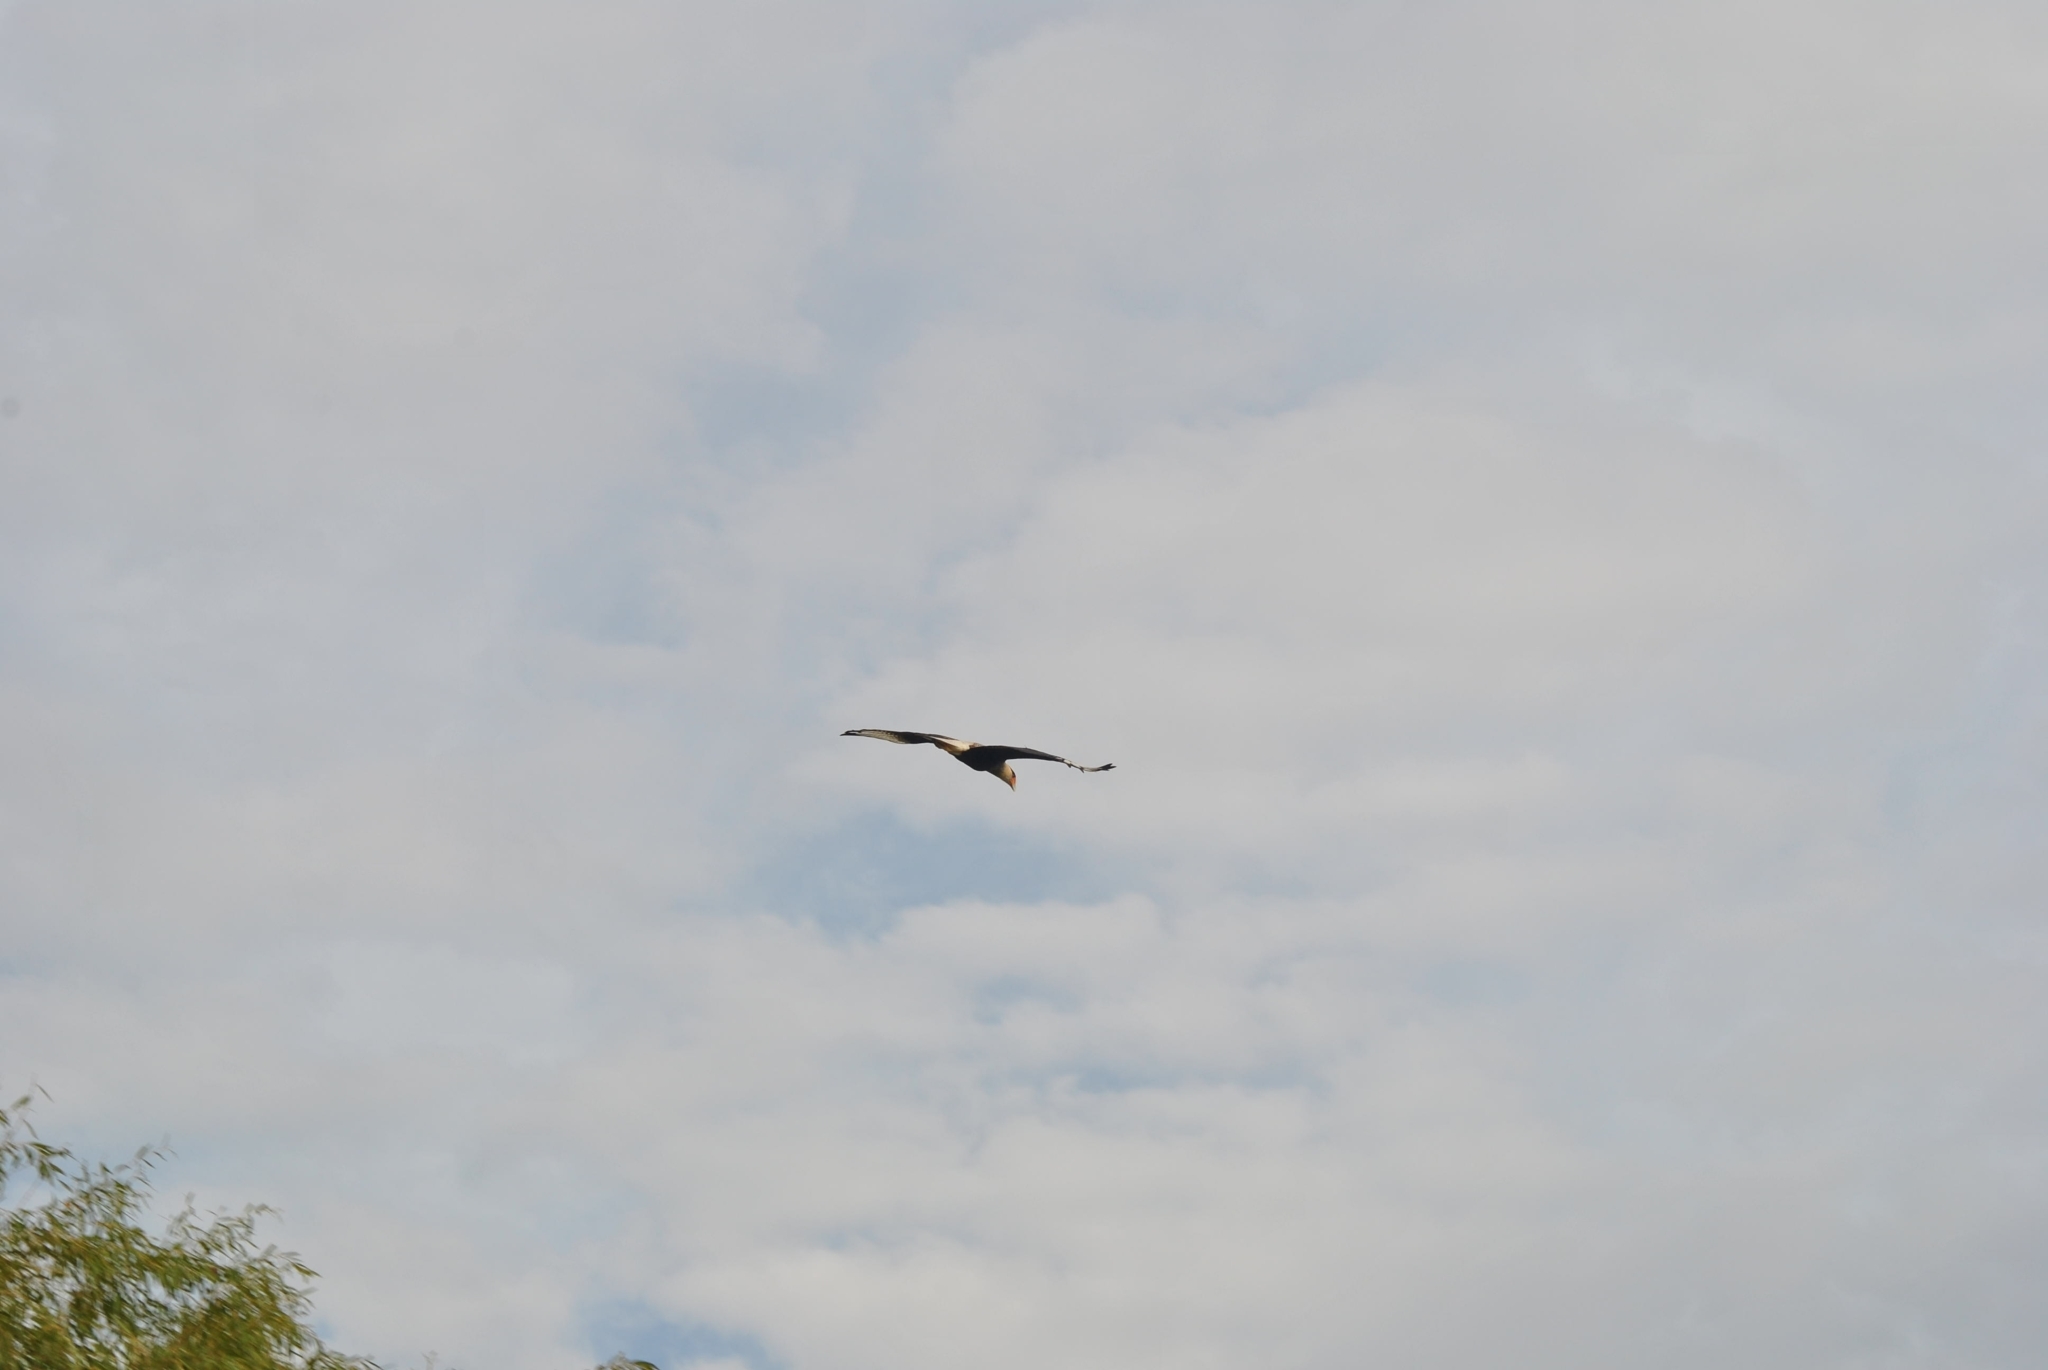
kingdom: Animalia
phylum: Chordata
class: Aves
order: Falconiformes
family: Falconidae
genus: Caracara
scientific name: Caracara plancus
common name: Southern caracara
